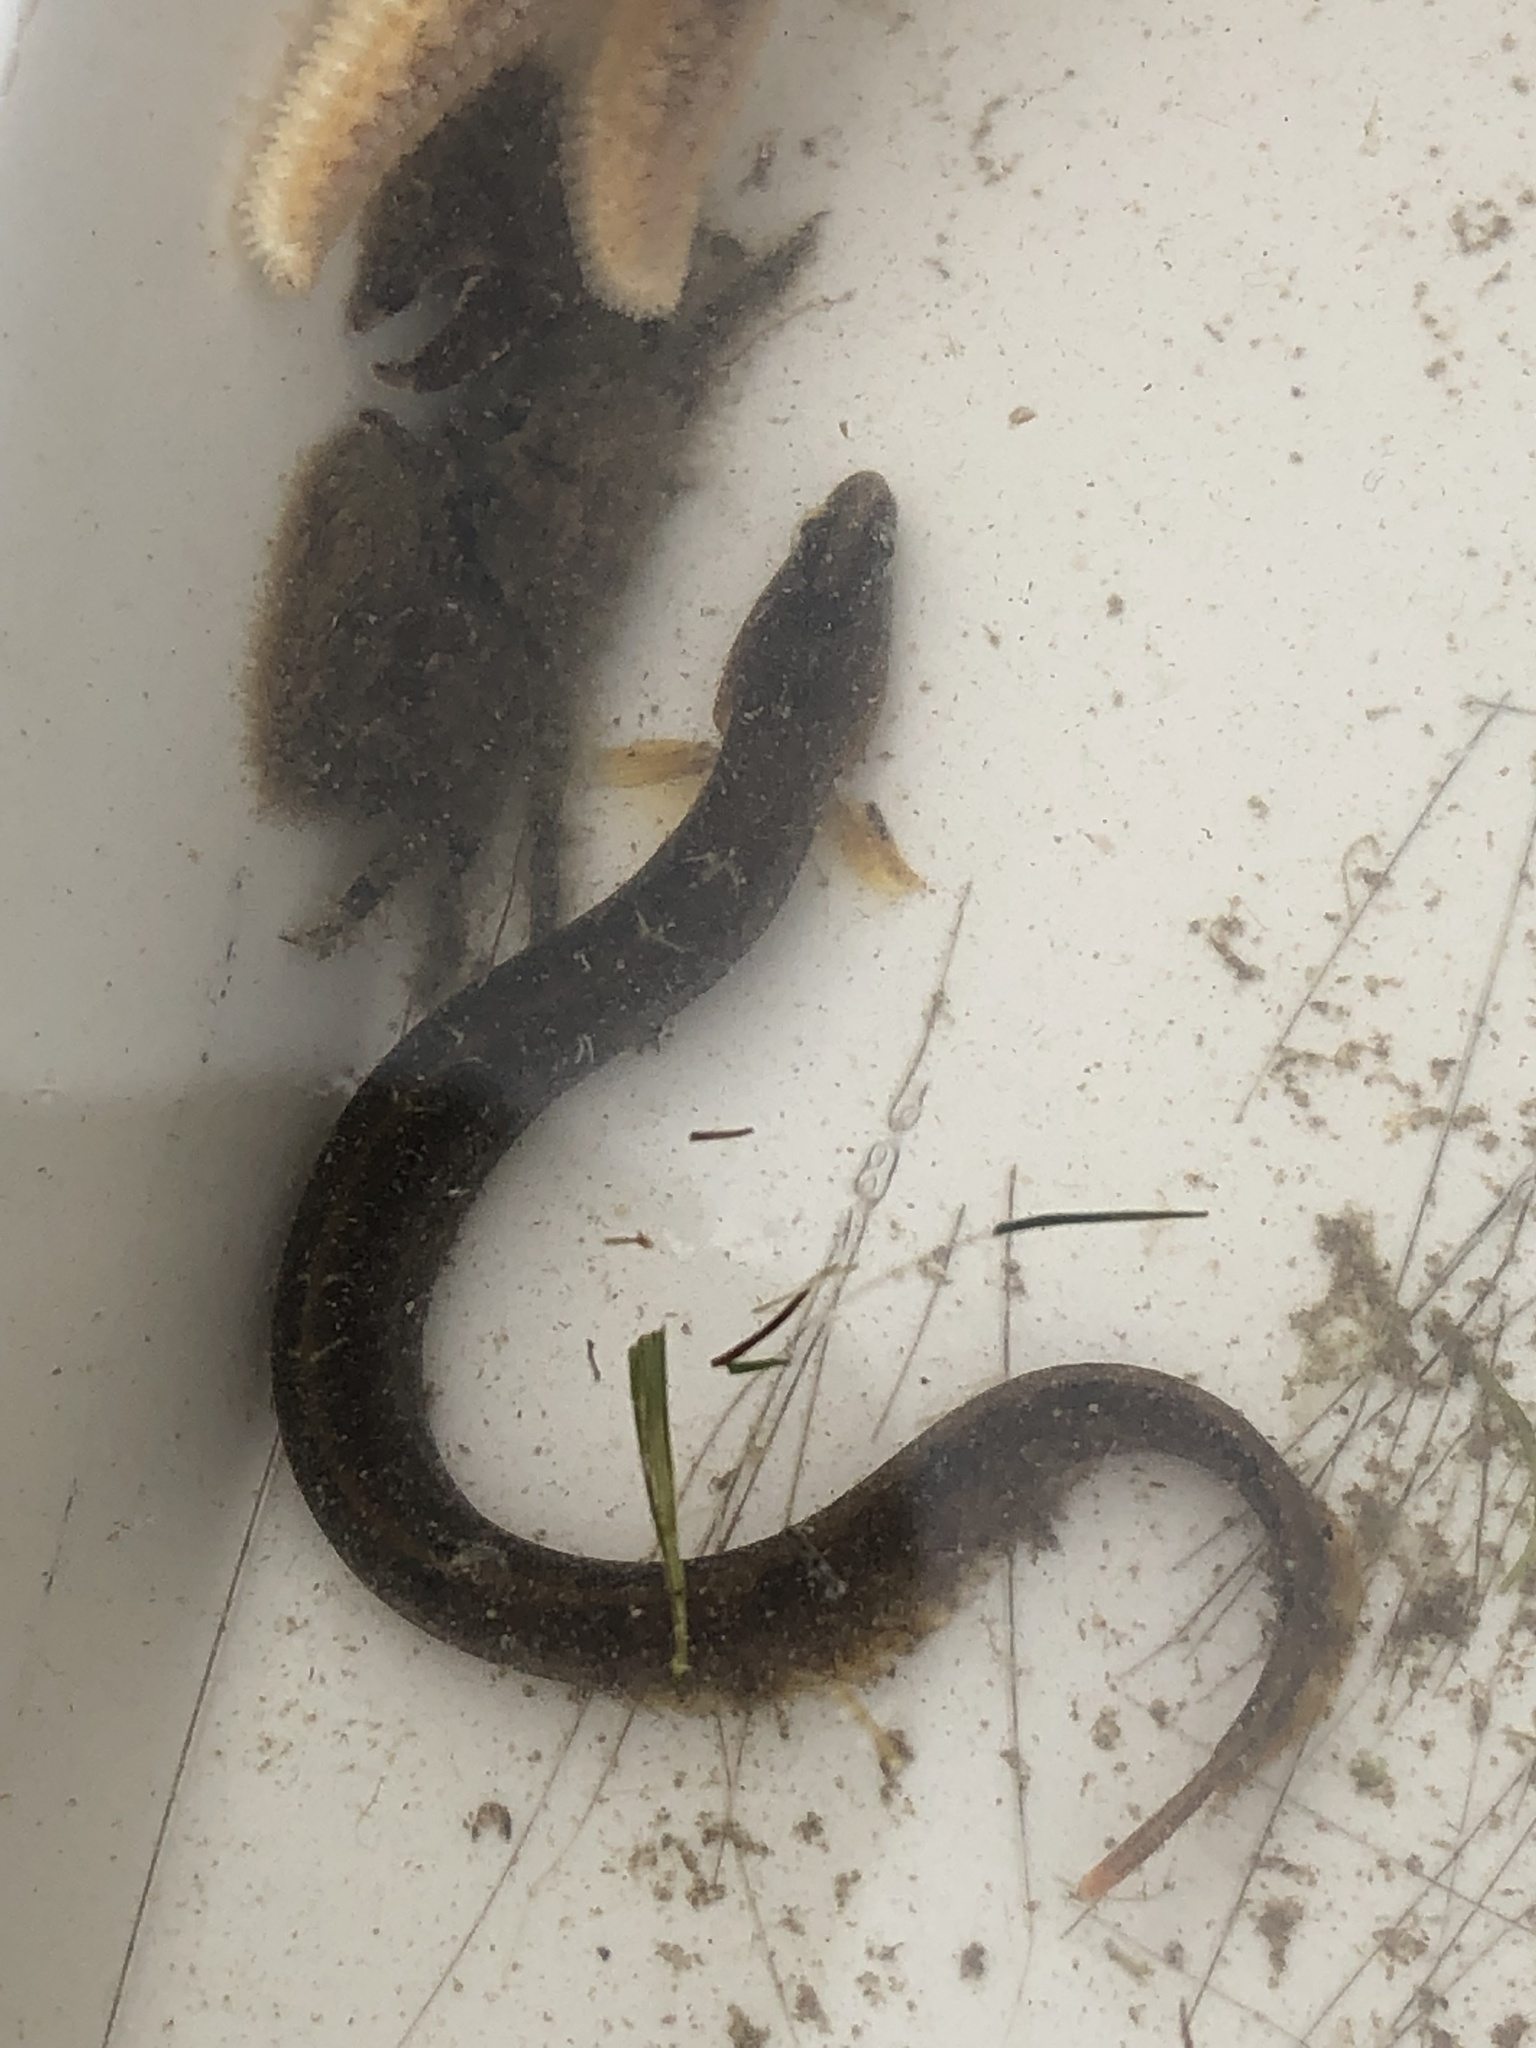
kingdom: Animalia
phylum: Chordata
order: Perciformes
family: Pholidae
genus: Pholis
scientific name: Pholis gunnellus
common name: Butterfish
